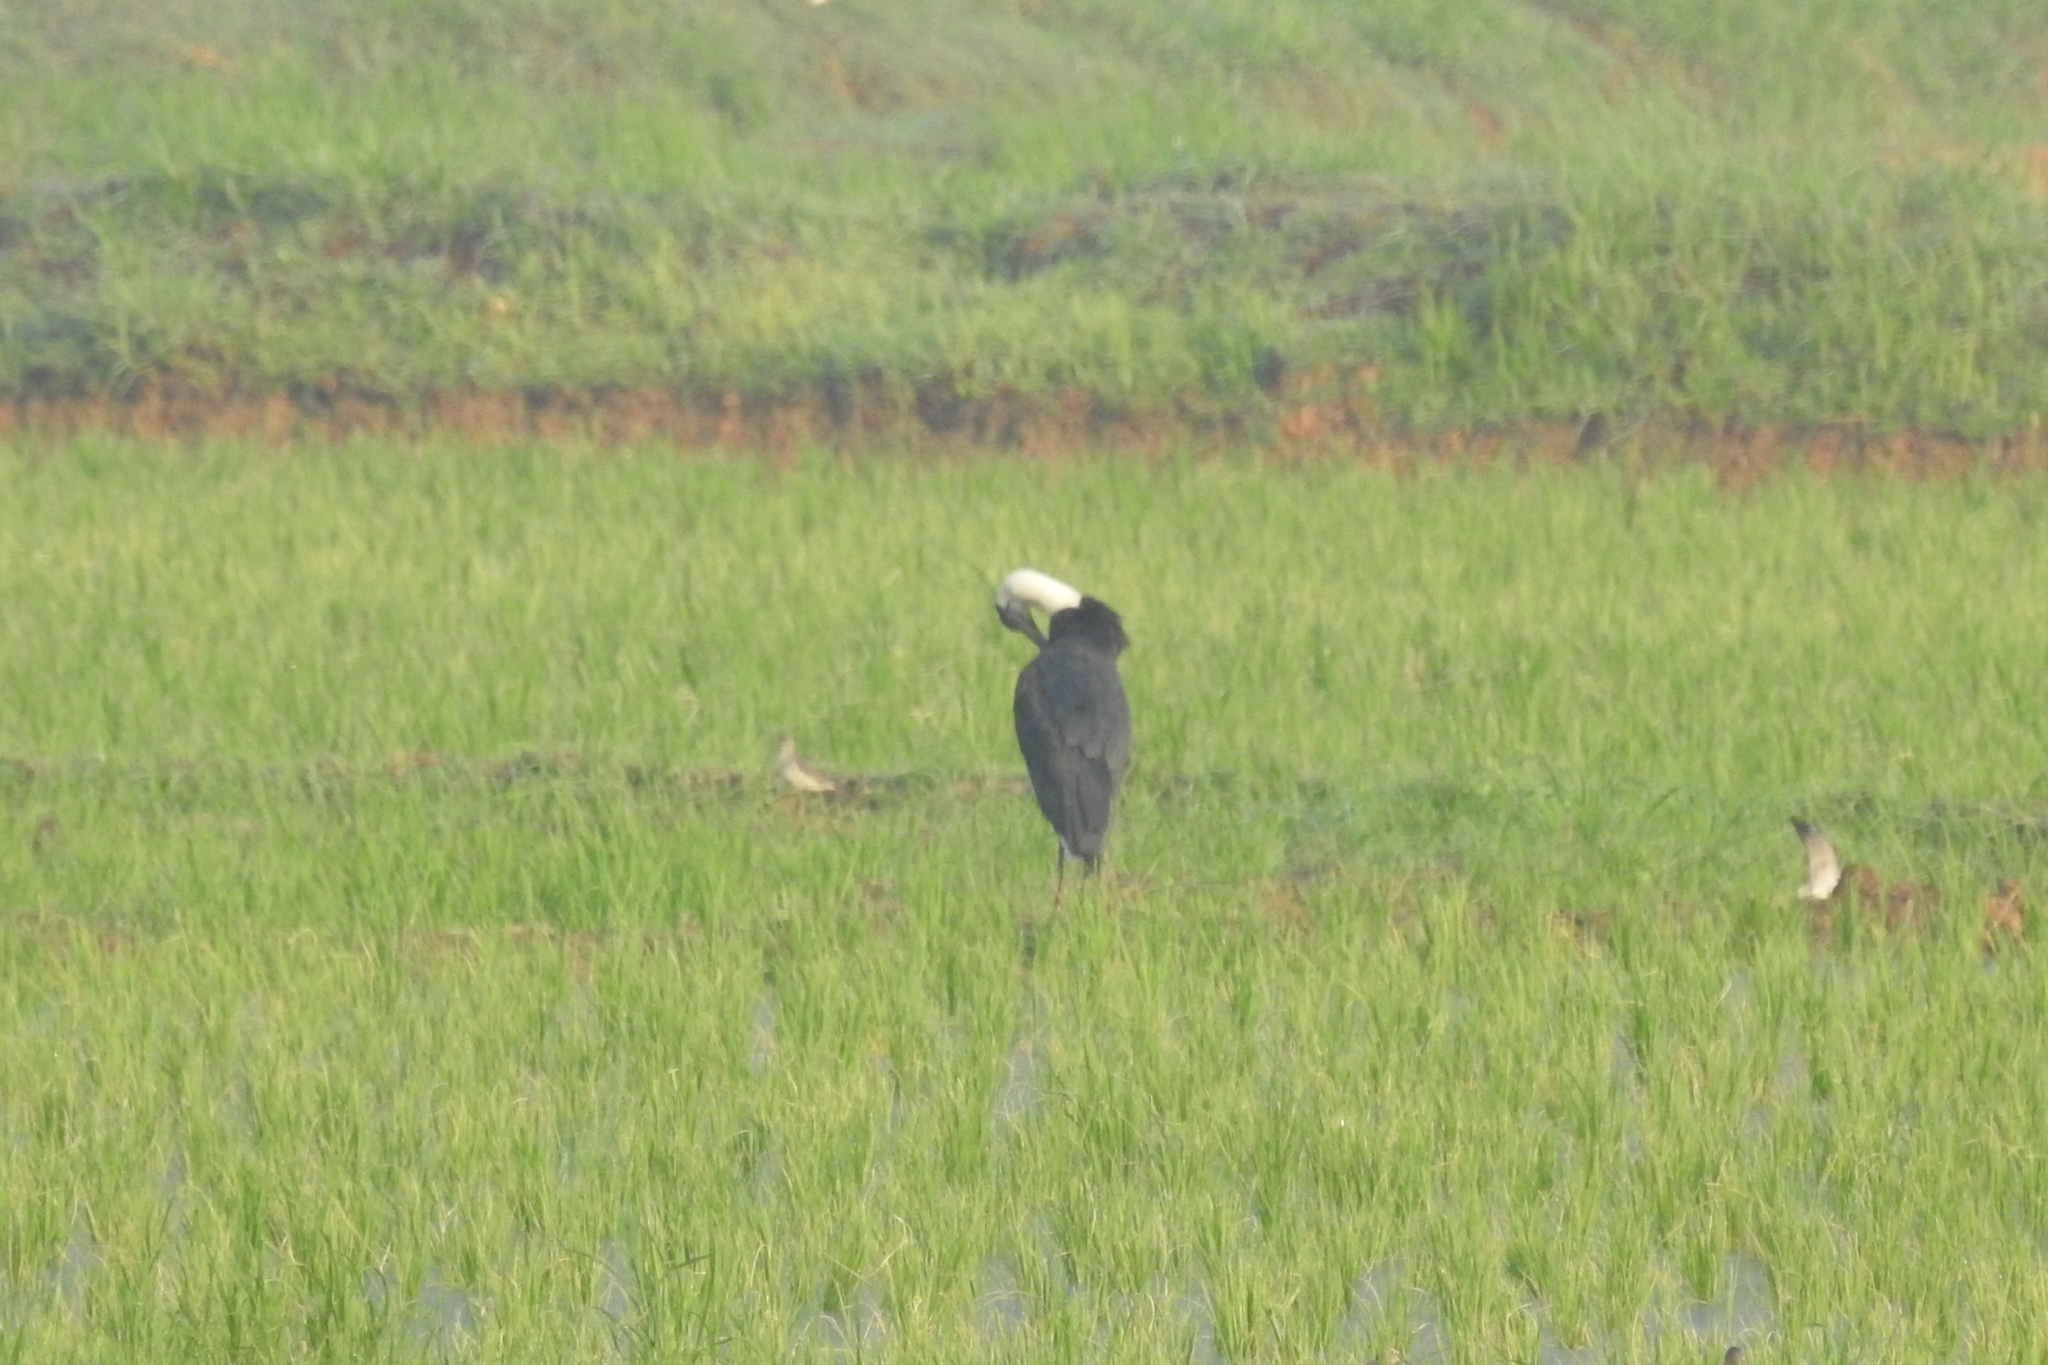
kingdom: Animalia
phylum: Chordata
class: Aves
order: Ciconiiformes
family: Ciconiidae
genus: Ciconia
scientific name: Ciconia episcopus
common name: Woolly-necked stork
